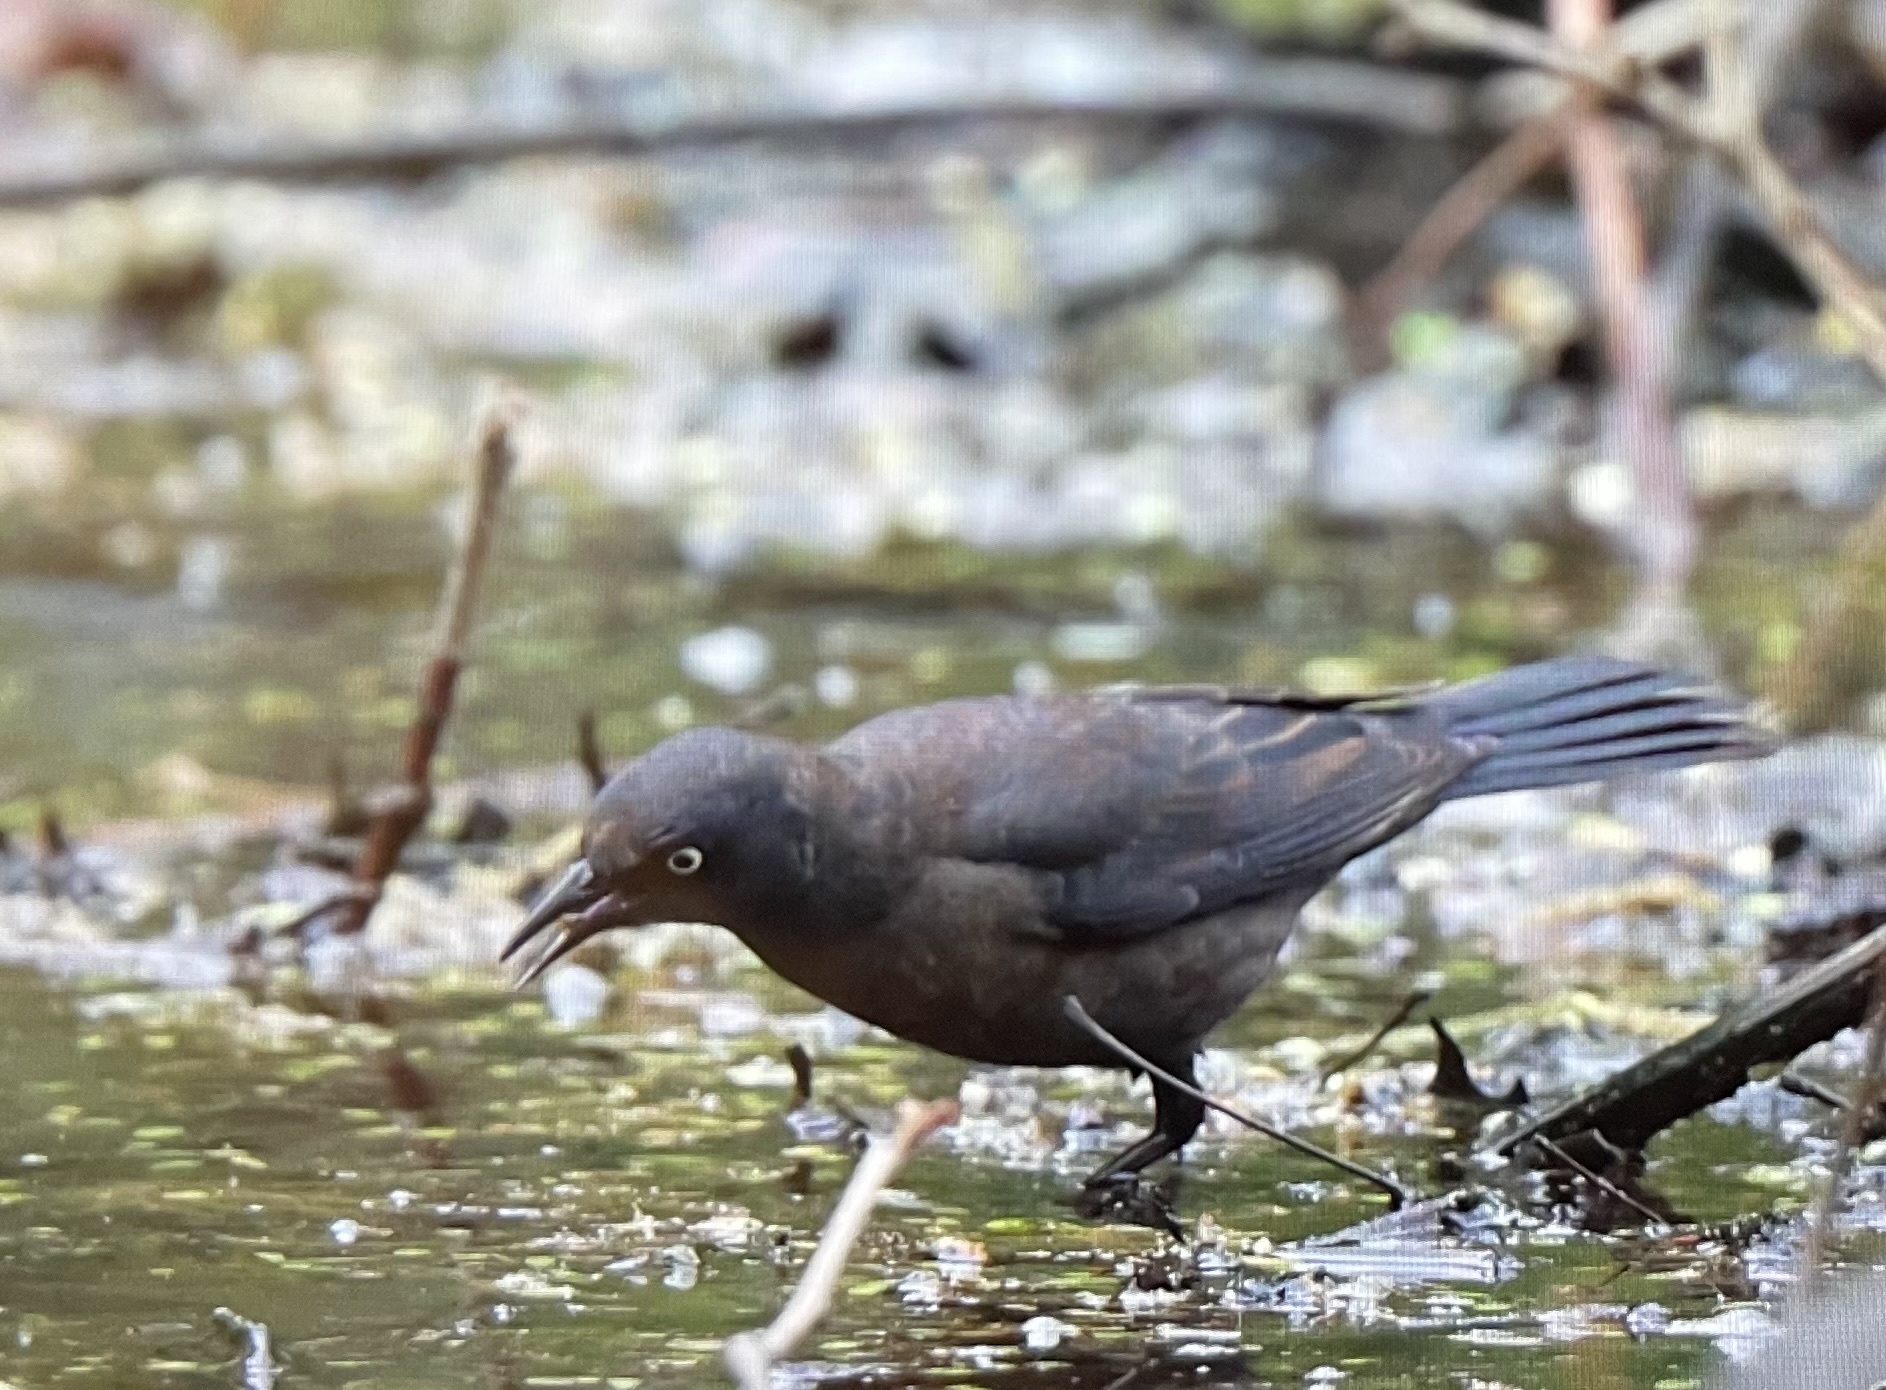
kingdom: Animalia
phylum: Chordata
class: Aves
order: Passeriformes
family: Icteridae
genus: Euphagus
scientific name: Euphagus carolinus
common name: Rusty blackbird
